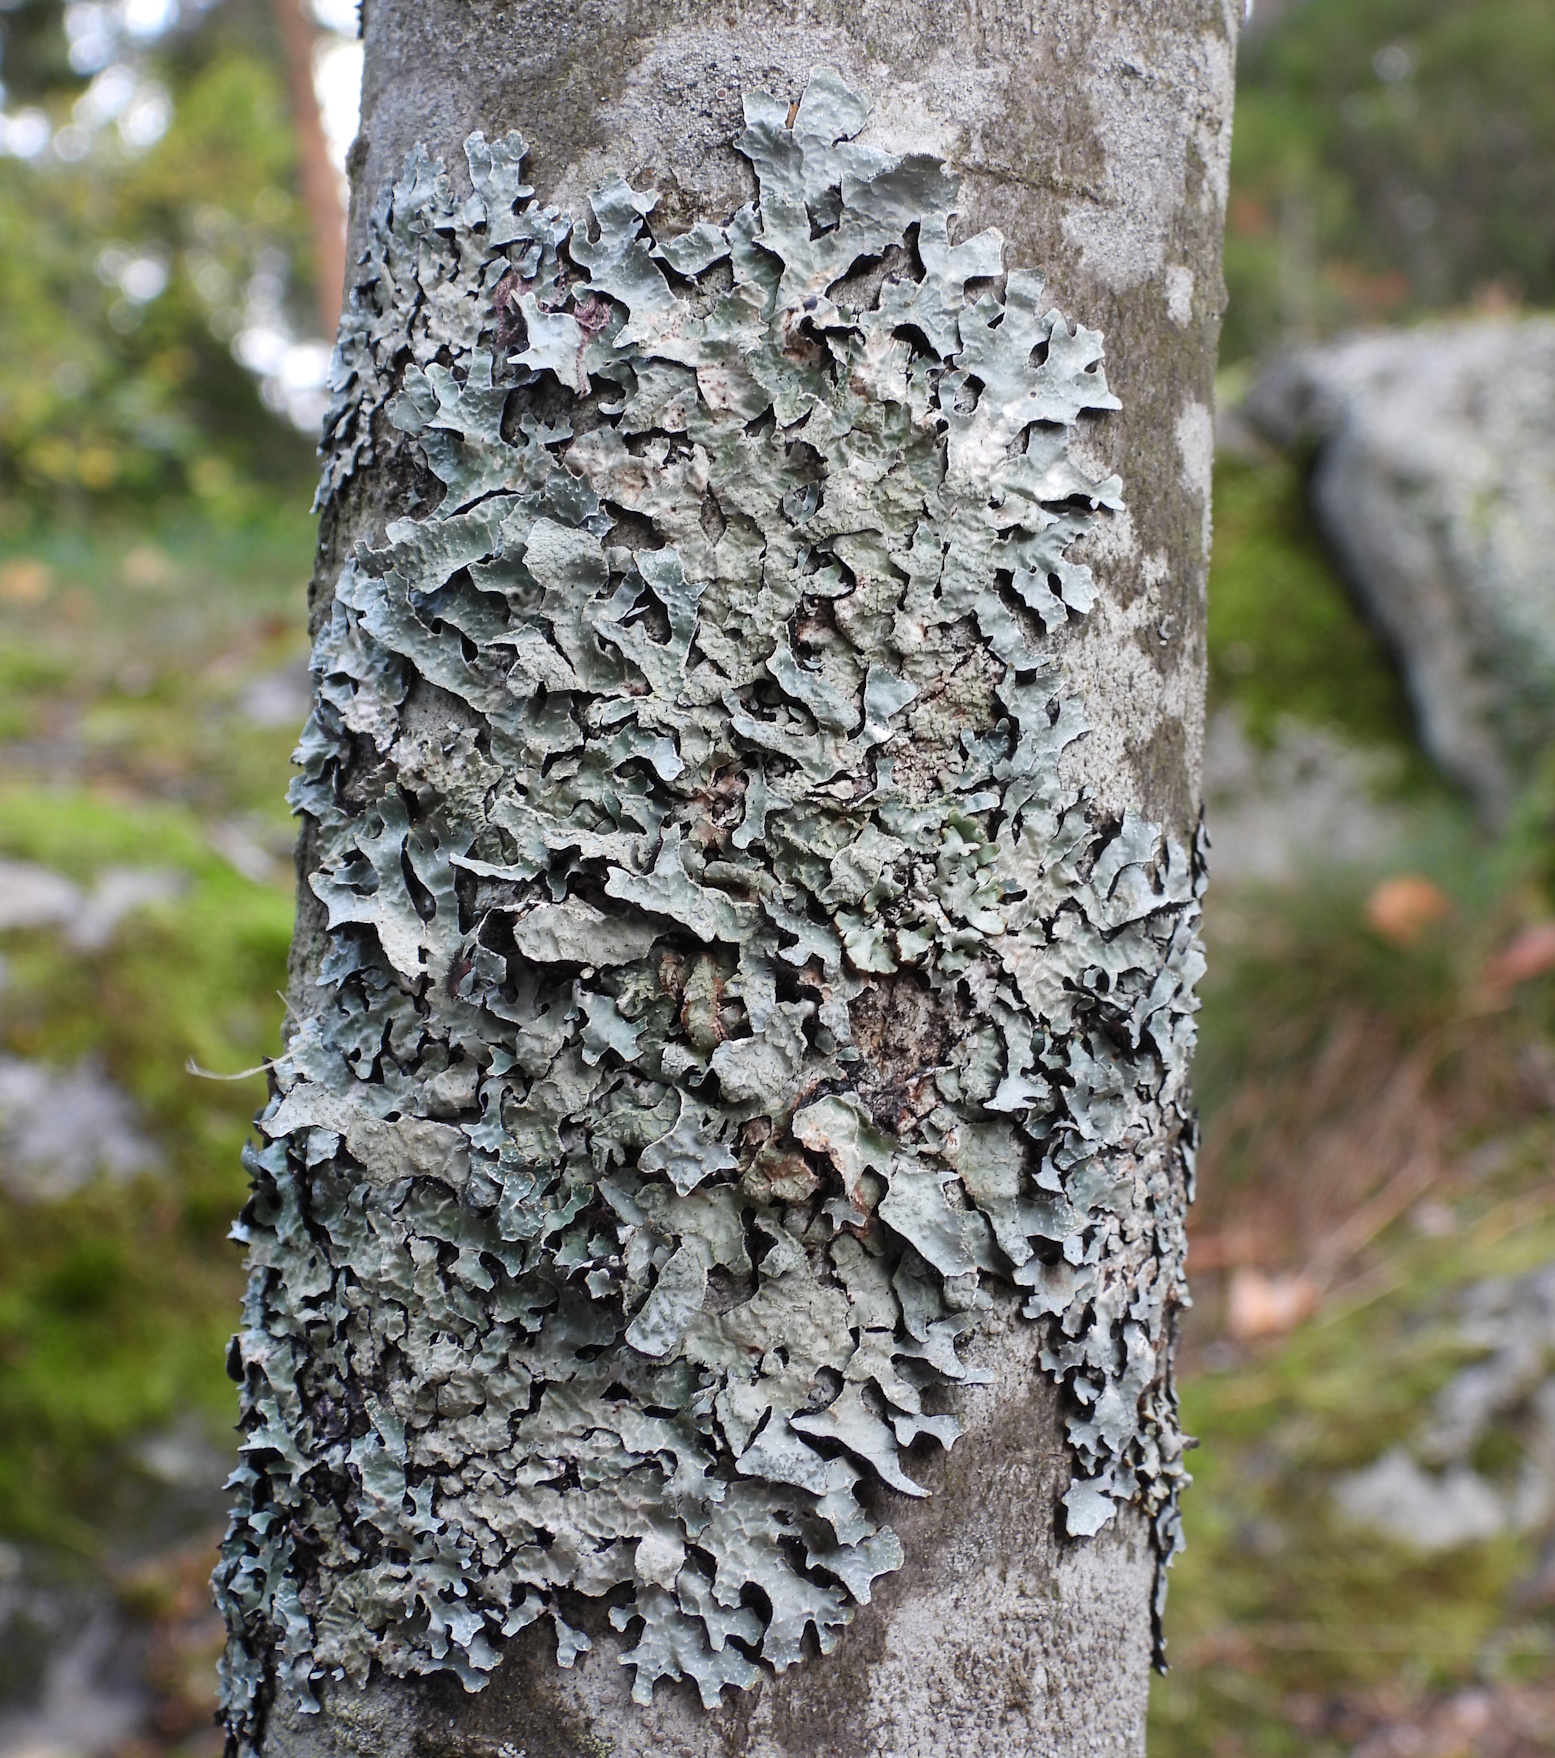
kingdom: Fungi
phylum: Ascomycota
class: Lecanoromycetes
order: Lecanorales
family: Parmeliaceae
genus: Parmelia
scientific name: Parmelia sulcata
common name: Netted shield lichen
